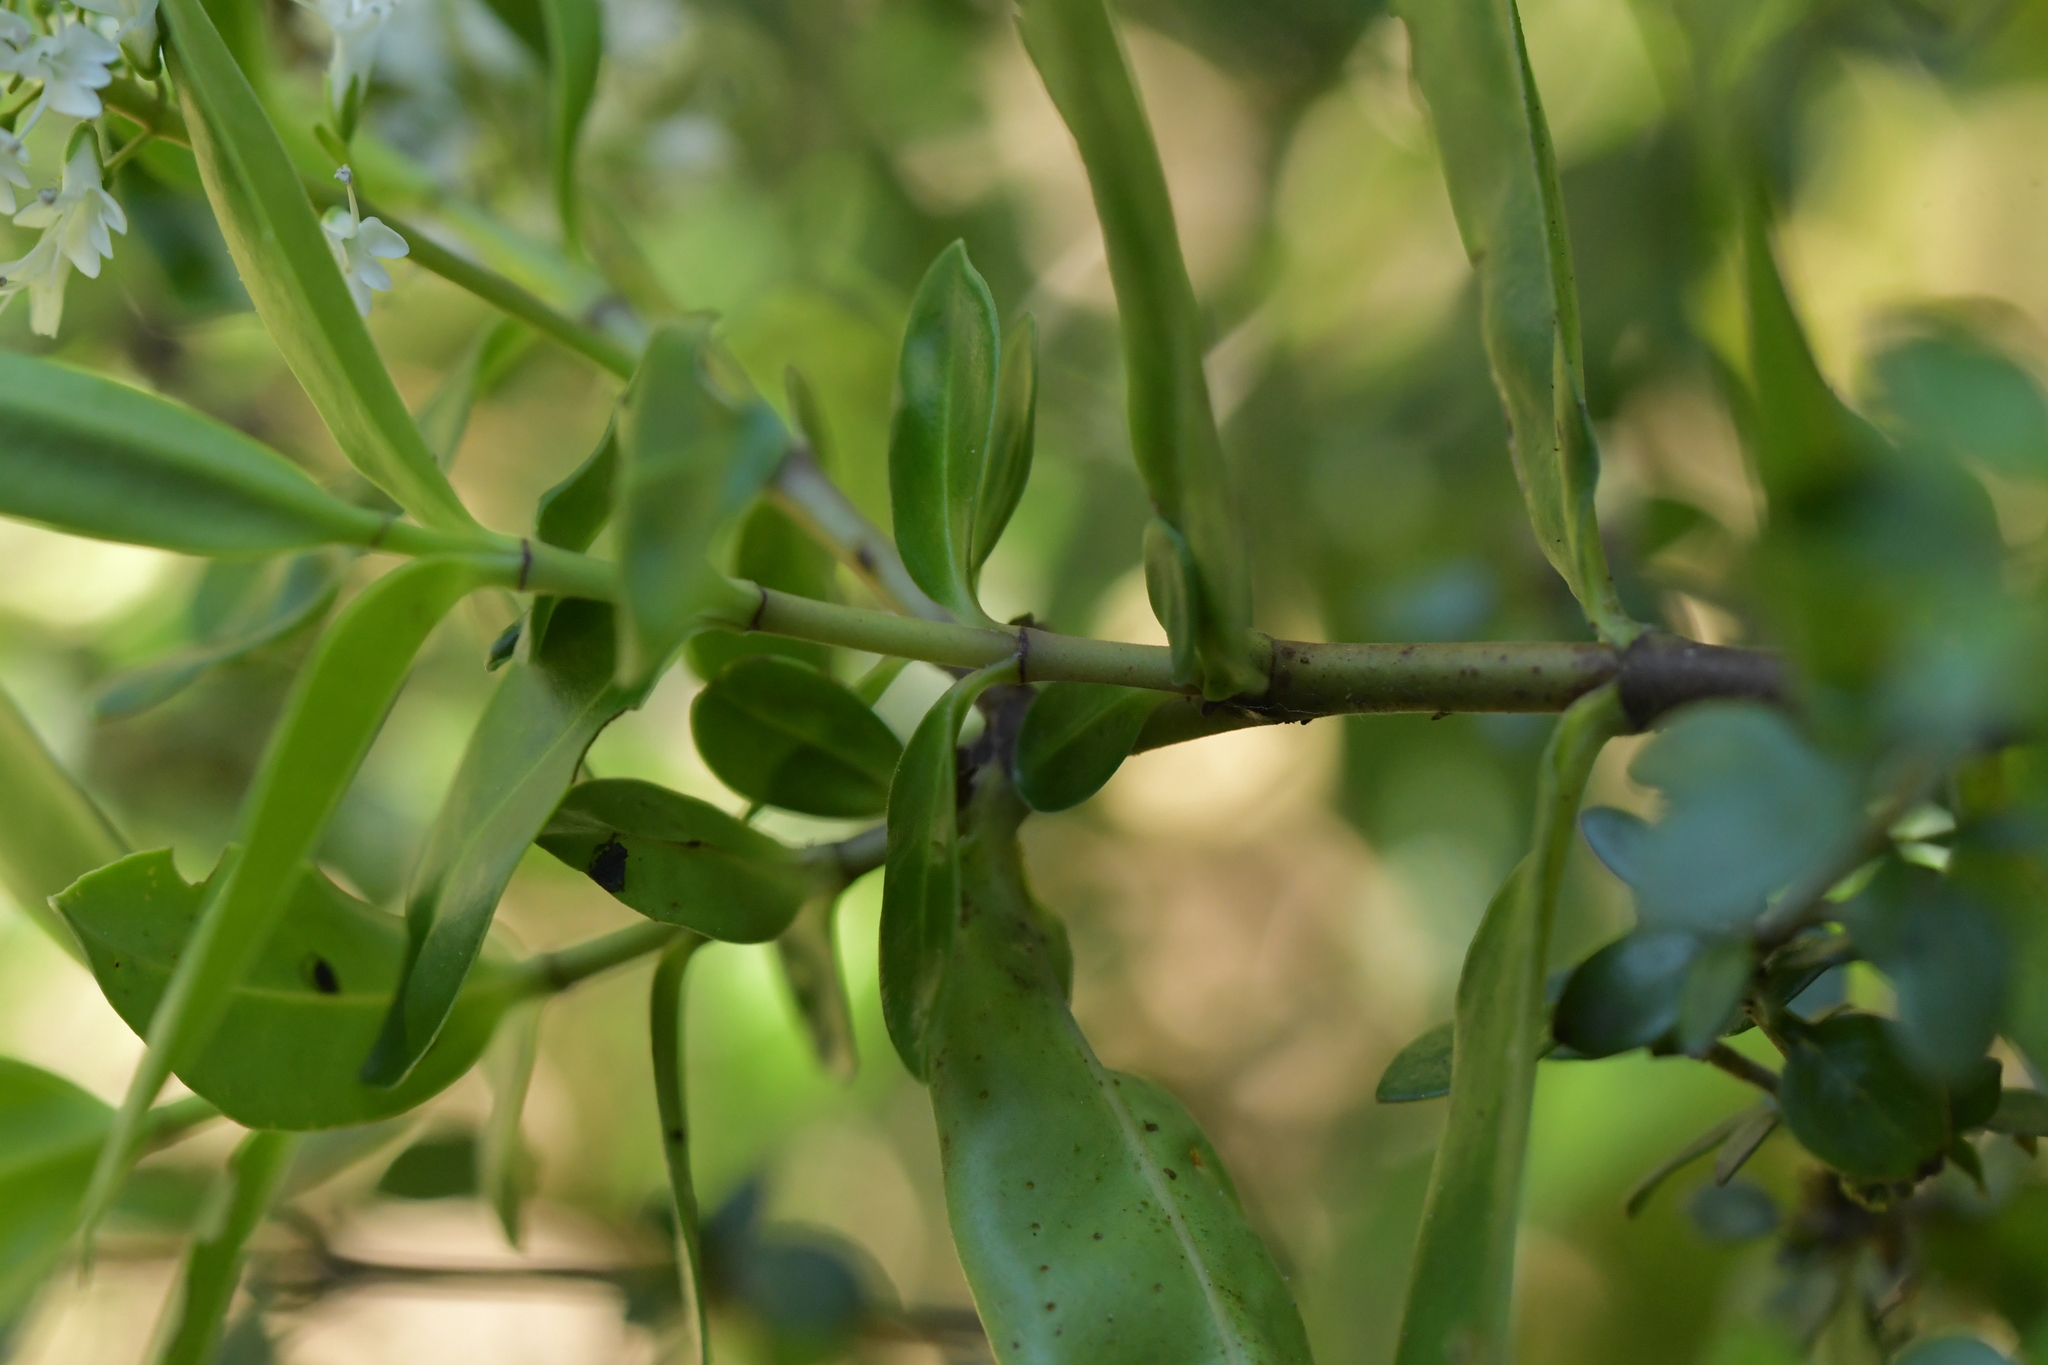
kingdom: Plantae
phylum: Tracheophyta
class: Magnoliopsida
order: Lamiales
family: Plantaginaceae
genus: Veronica
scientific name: Veronica stricta
